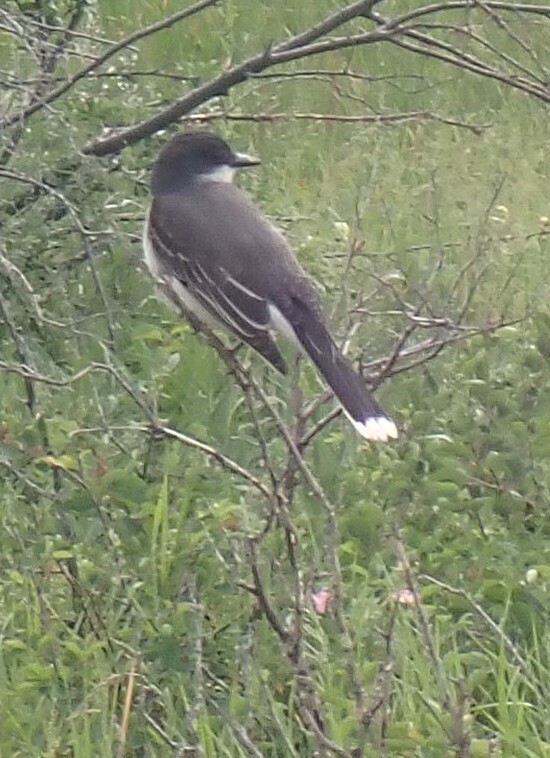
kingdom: Animalia
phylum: Chordata
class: Aves
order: Passeriformes
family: Tyrannidae
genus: Tyrannus
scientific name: Tyrannus tyrannus
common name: Eastern kingbird
